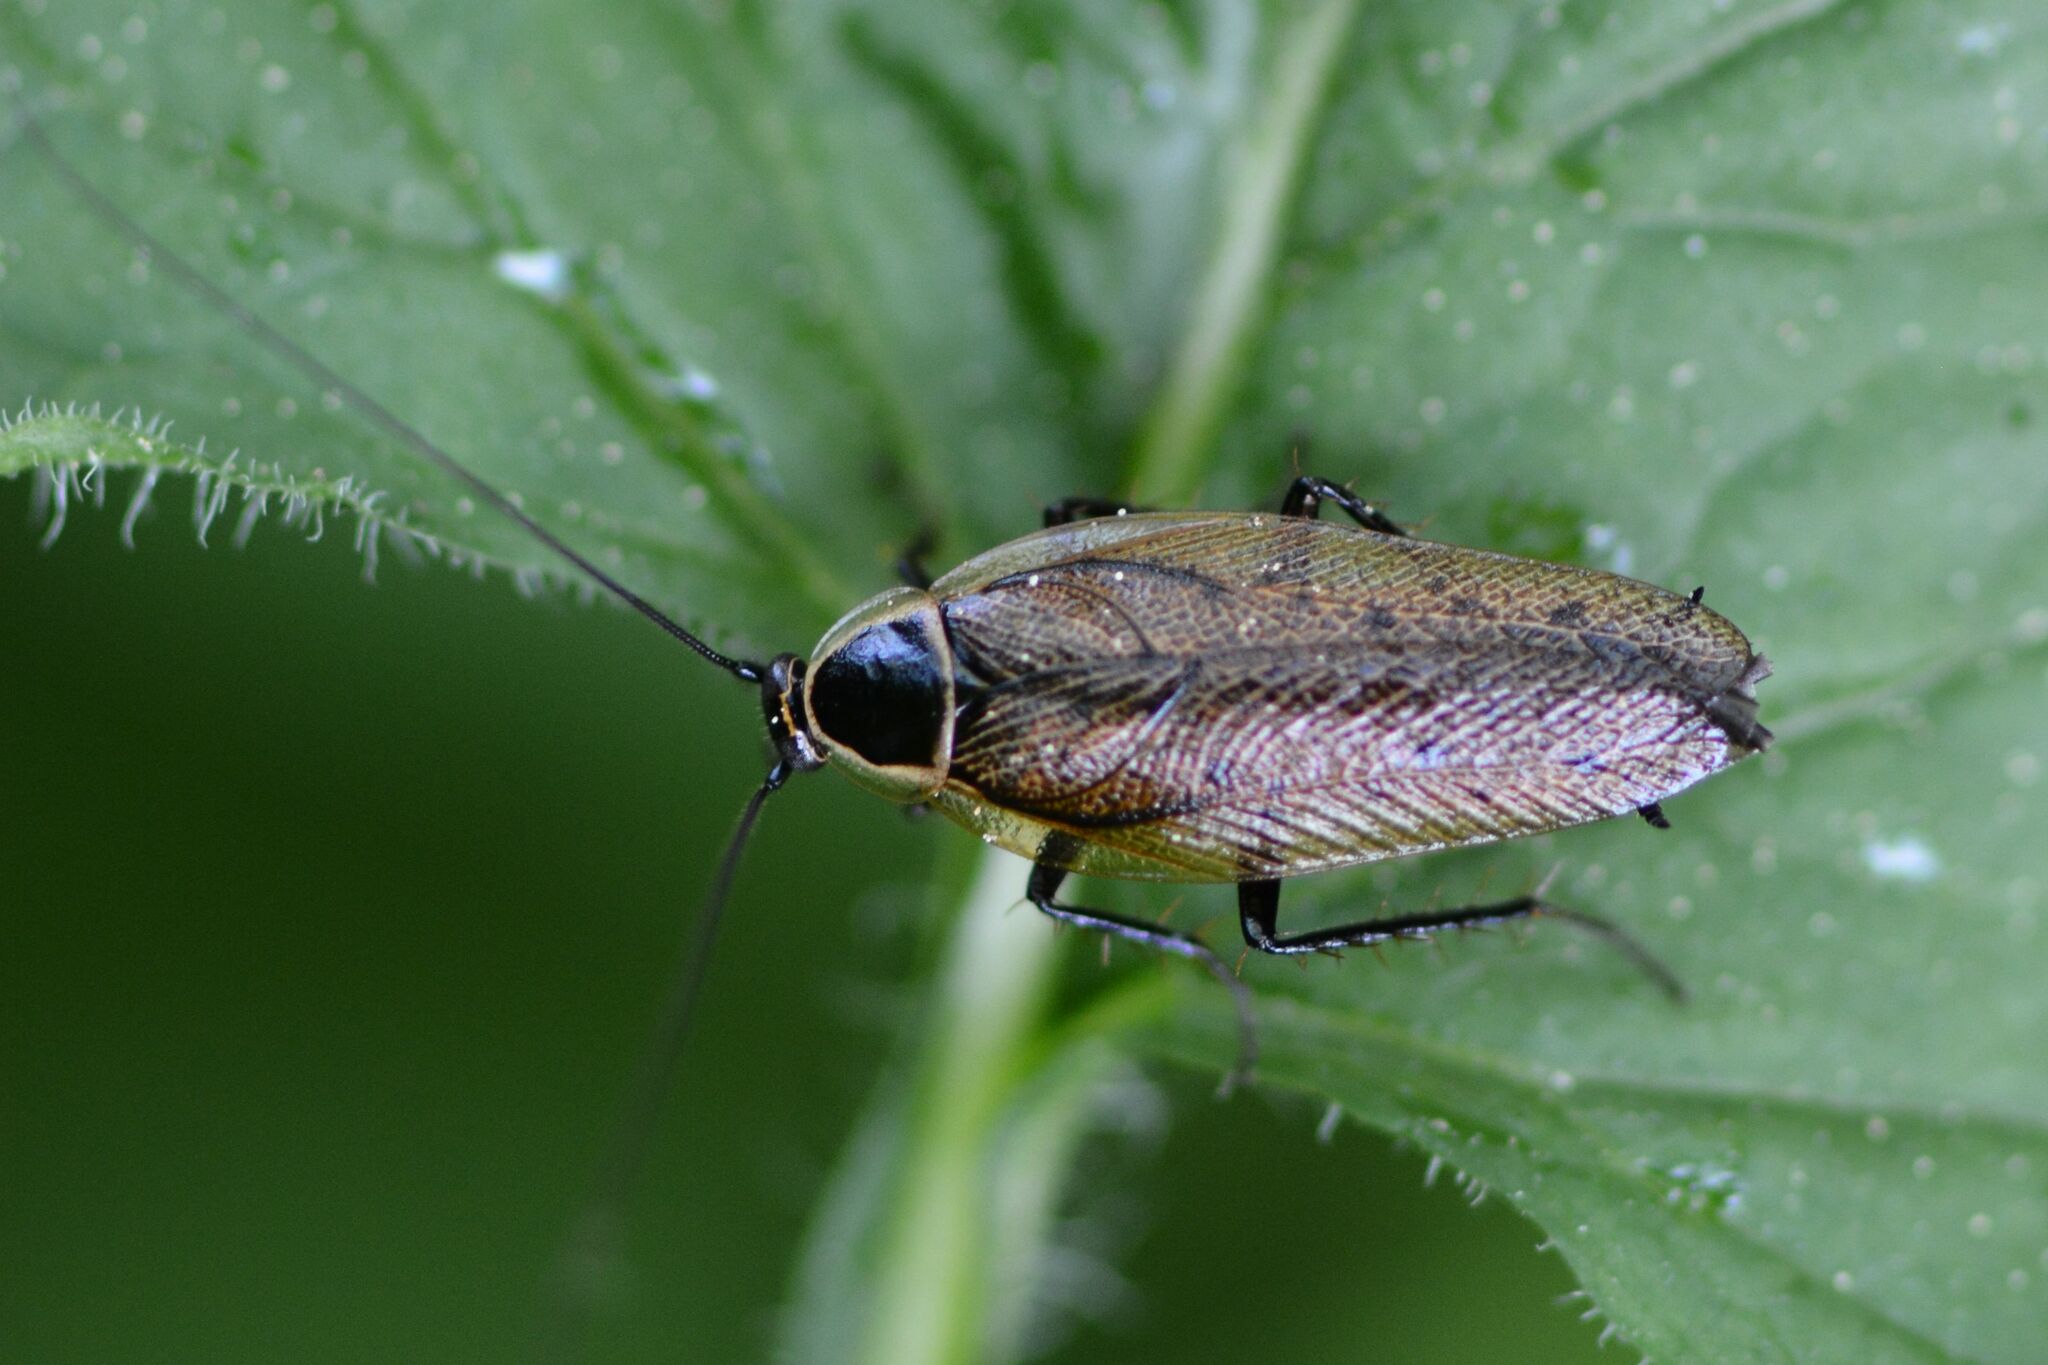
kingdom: Animalia
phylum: Arthropoda
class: Insecta
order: Blattodea
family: Ectobiidae
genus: Ectobius
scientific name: Ectobius sylvestris
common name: Forest cockroach
